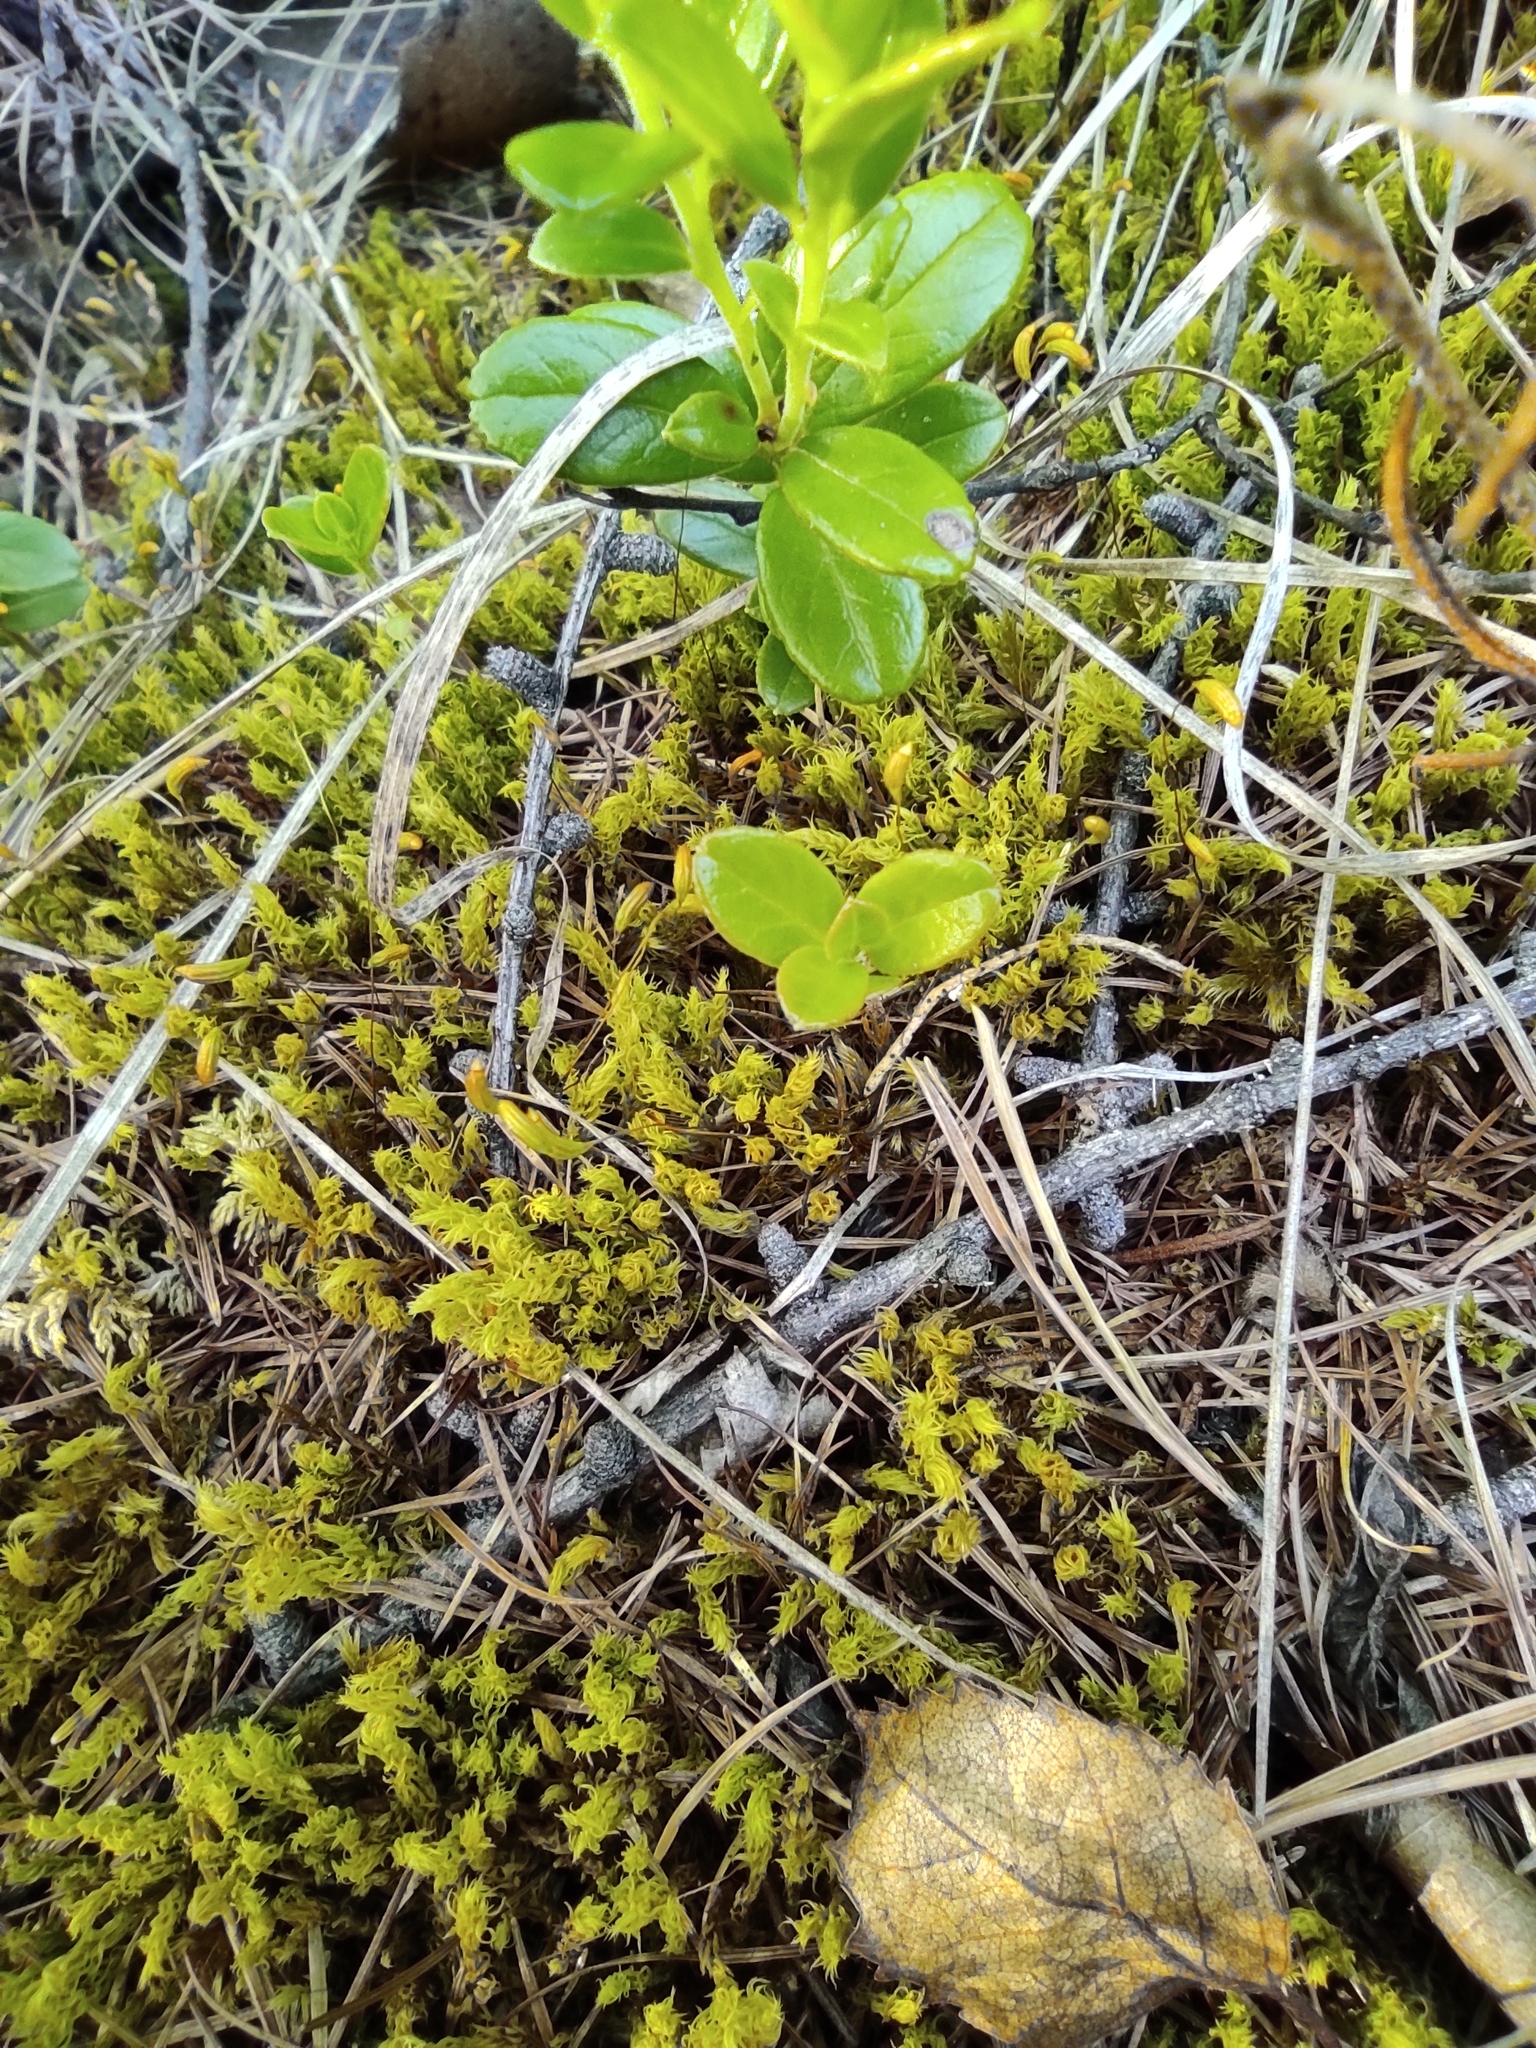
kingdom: Plantae
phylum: Tracheophyta
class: Magnoliopsida
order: Ericales
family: Ericaceae
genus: Vaccinium
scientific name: Vaccinium vitis-idaea
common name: Cowberry
